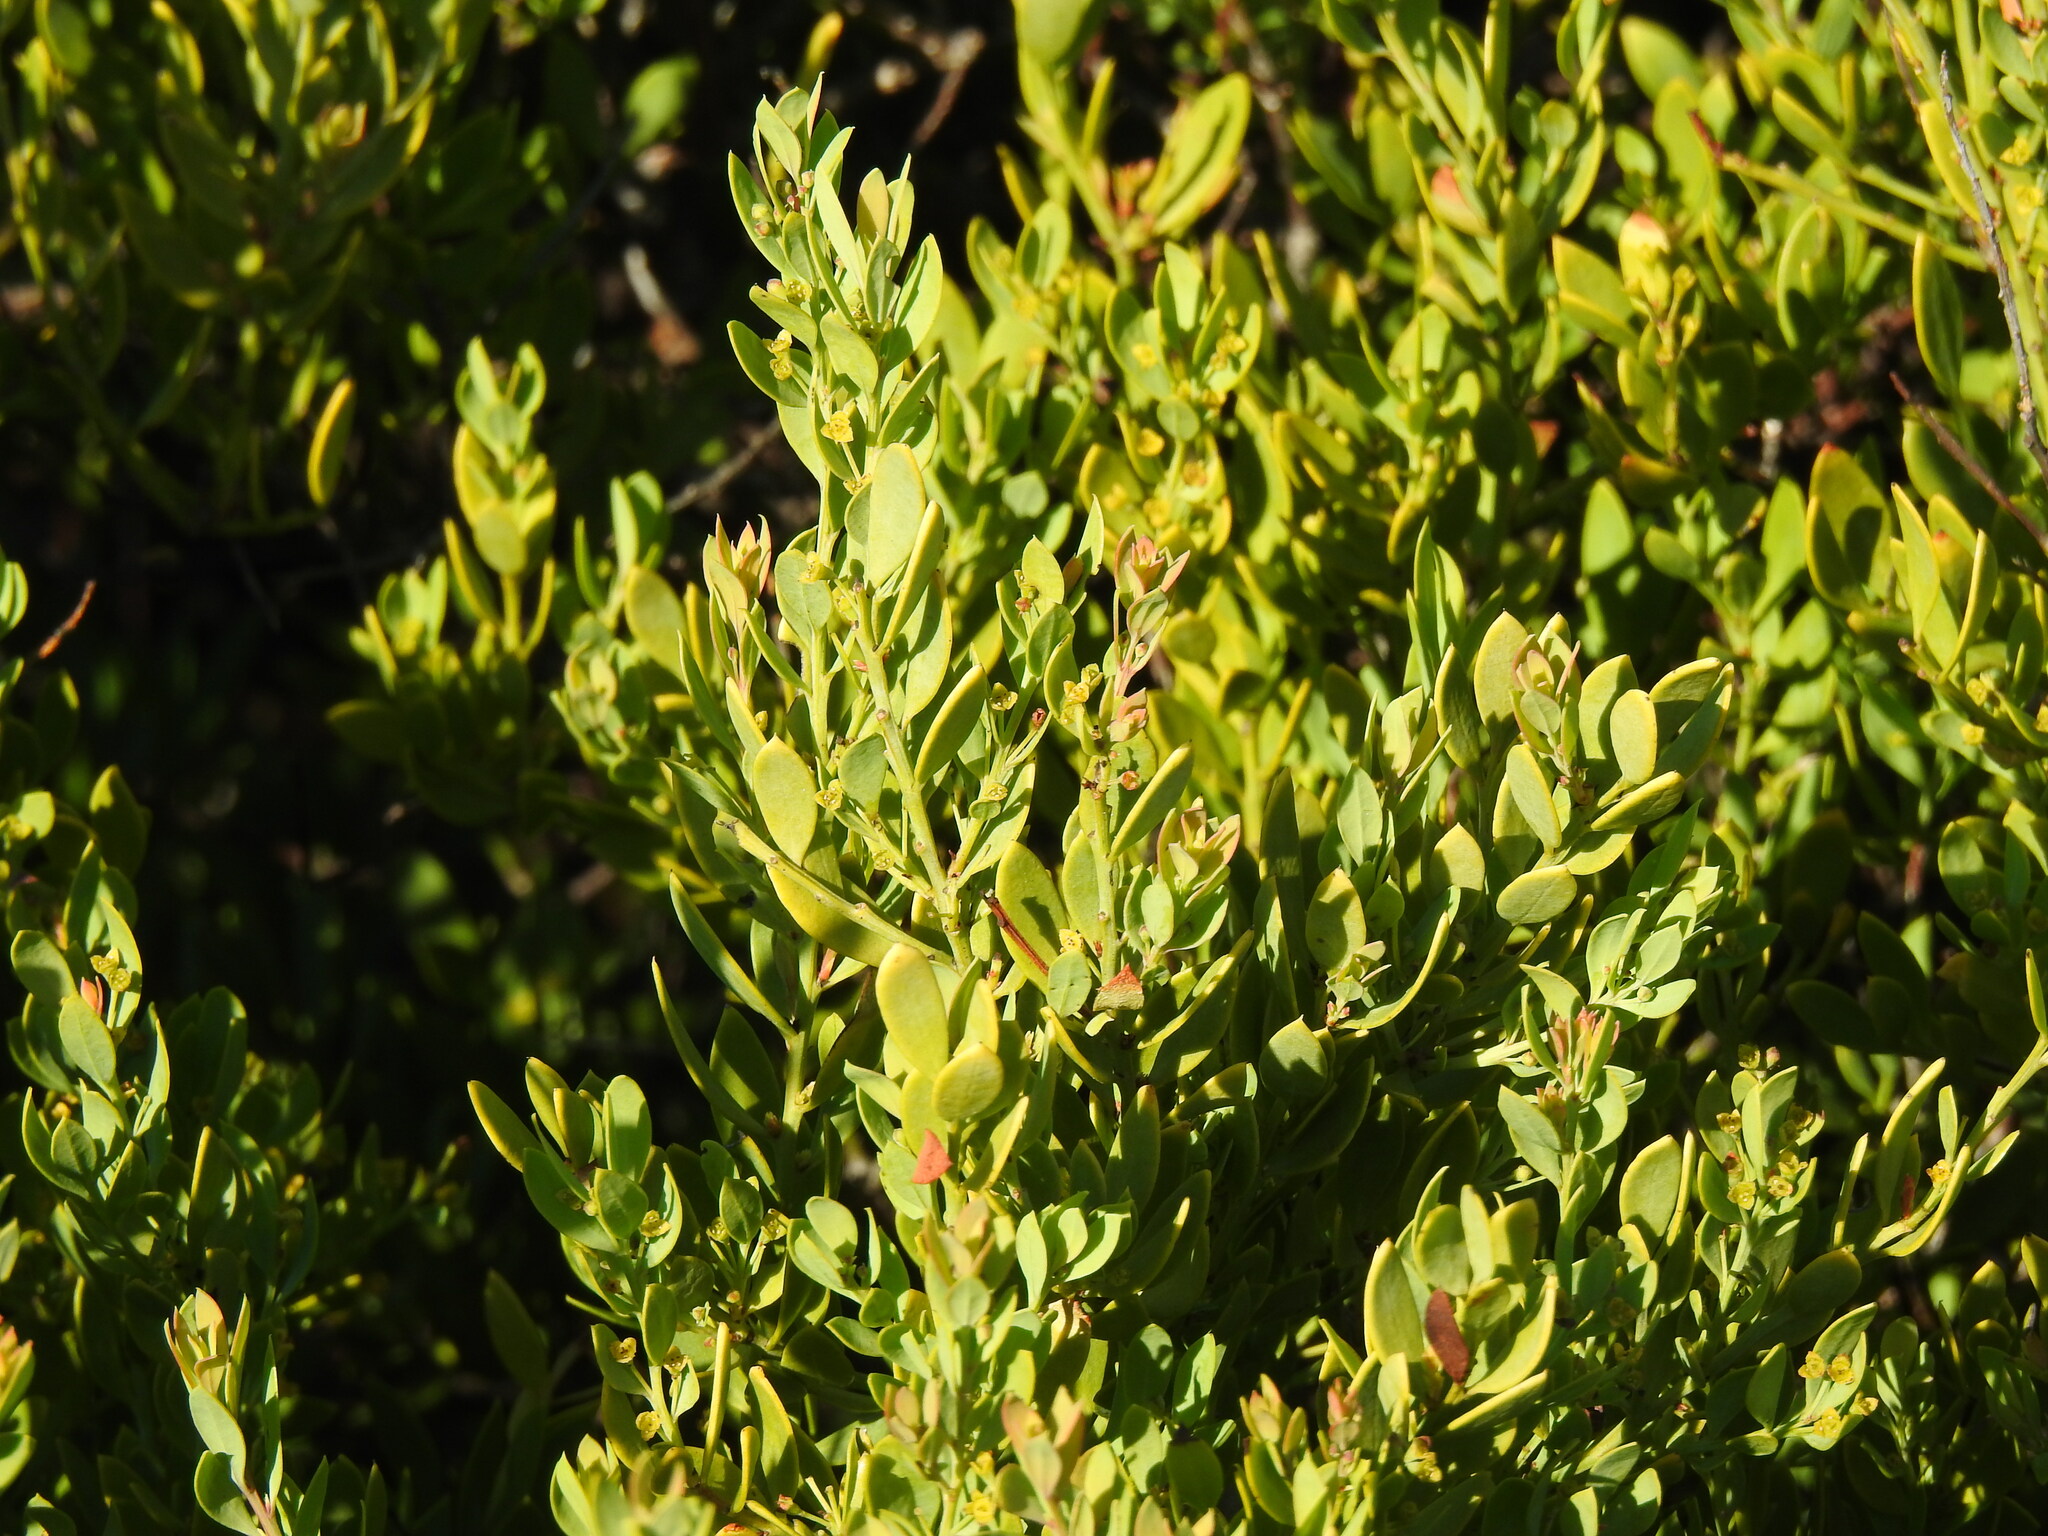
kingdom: Plantae
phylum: Tracheophyta
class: Magnoliopsida
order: Santalales
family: Santalaceae
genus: Osyris
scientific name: Osyris lanceolata
